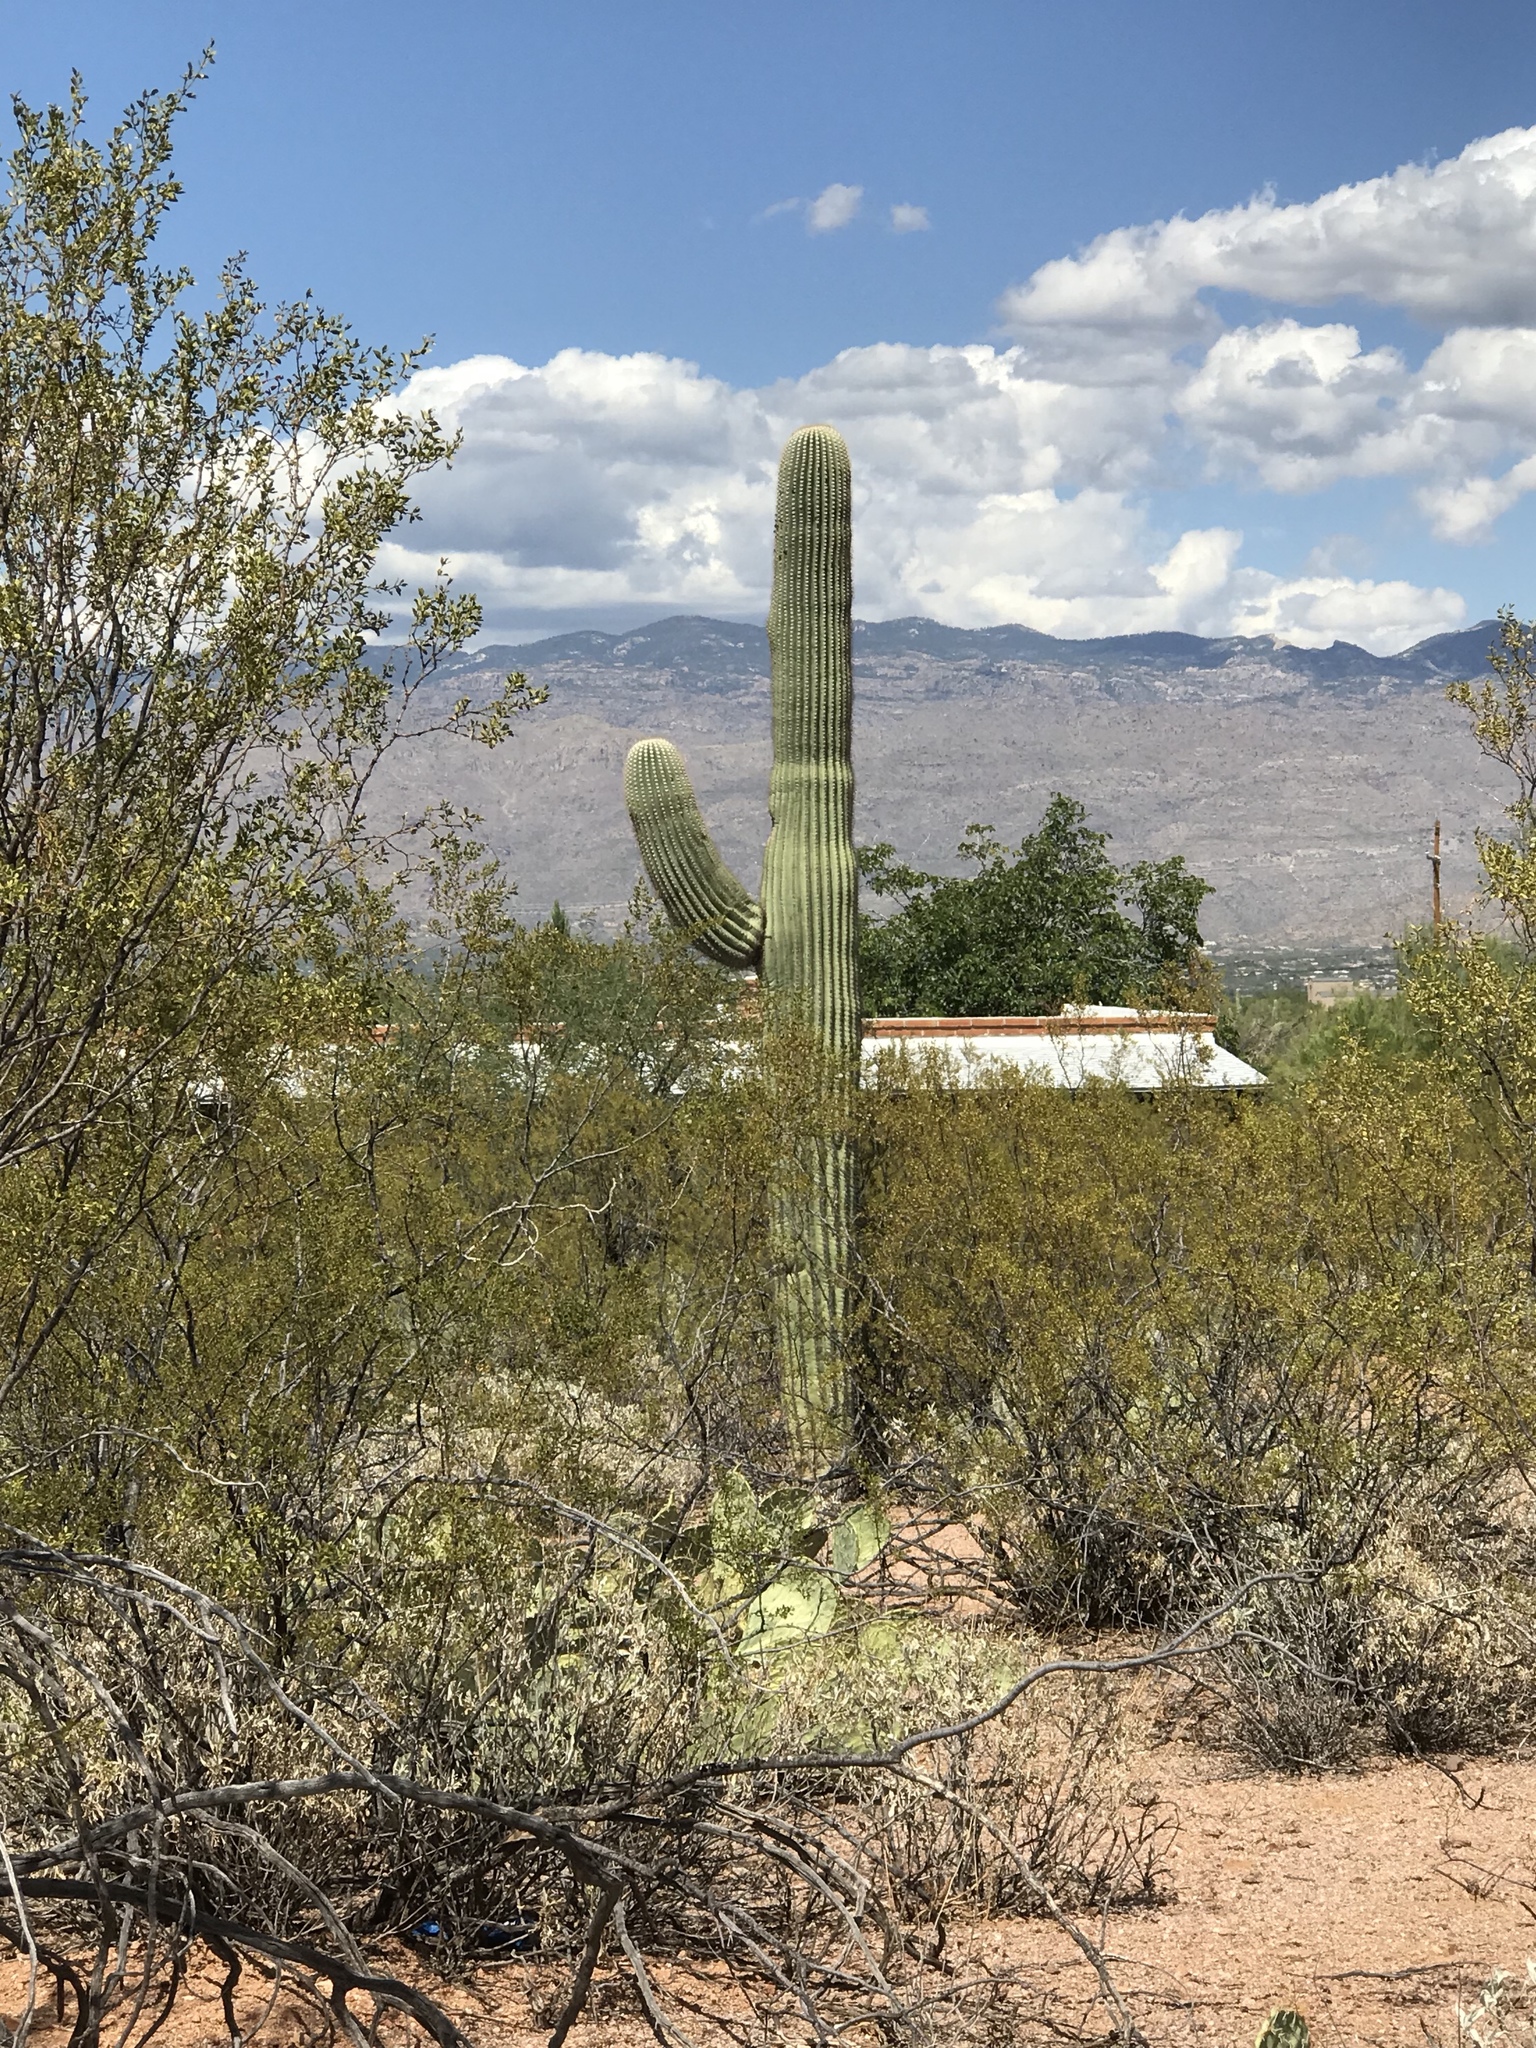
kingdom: Plantae
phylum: Tracheophyta
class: Magnoliopsida
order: Caryophyllales
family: Cactaceae
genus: Carnegiea
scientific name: Carnegiea gigantea
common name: Saguaro
